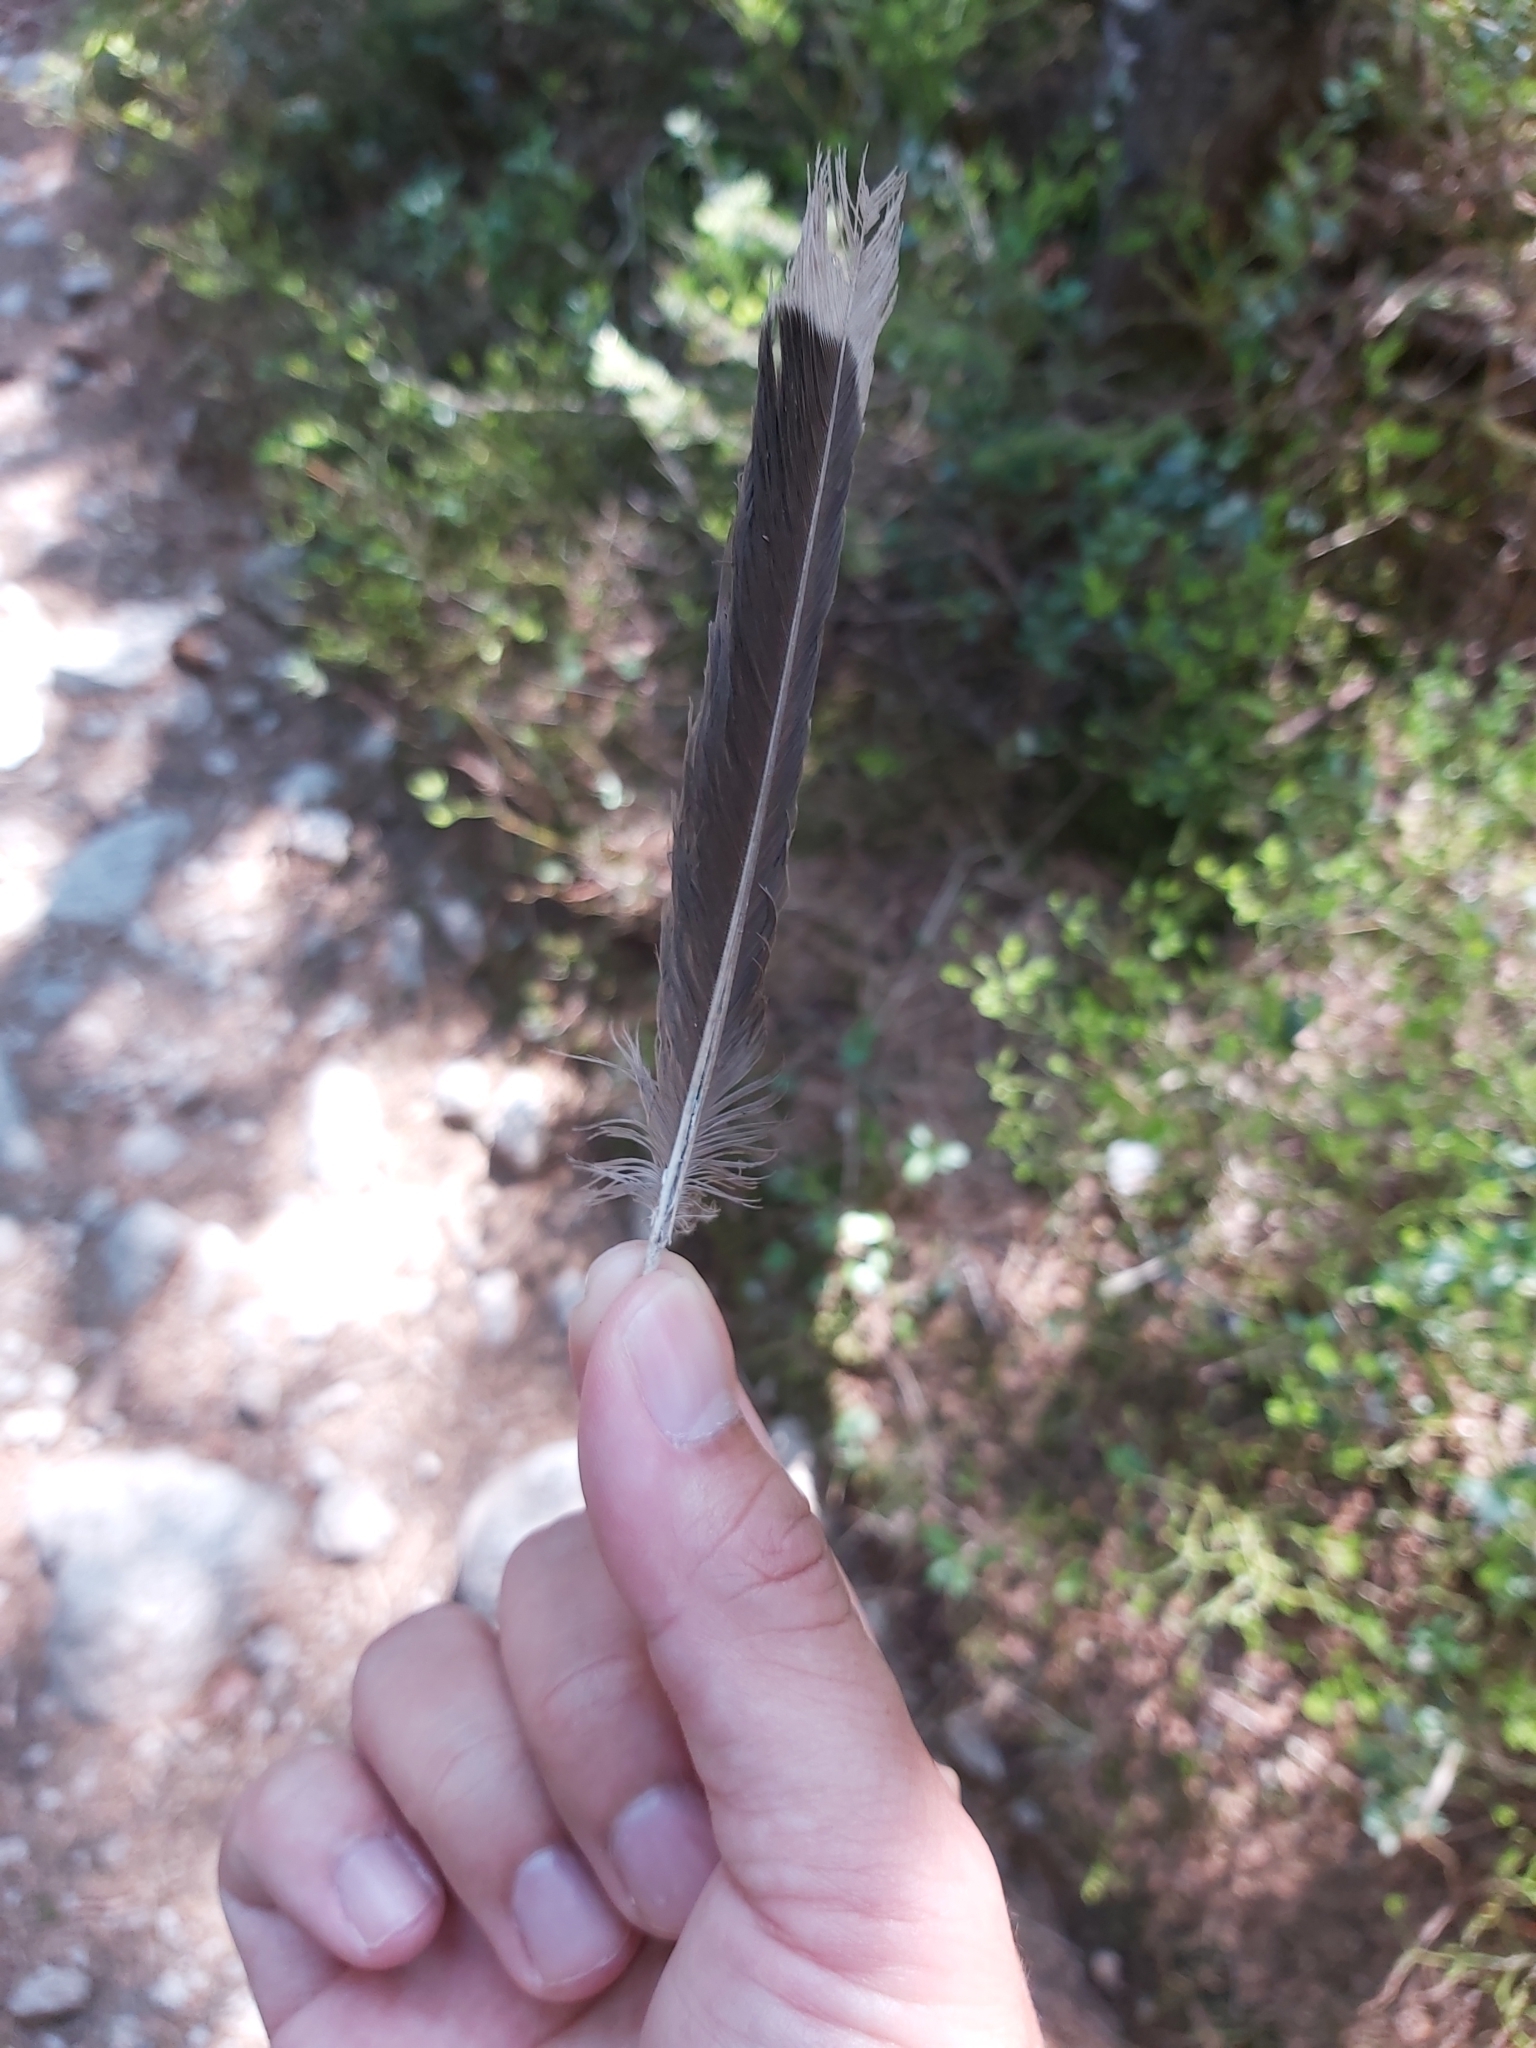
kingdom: Animalia
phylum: Chordata
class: Aves
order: Passeriformes
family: Corvidae
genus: Nucifraga
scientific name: Nucifraga caryocatactes
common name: Spotted nutcracker
